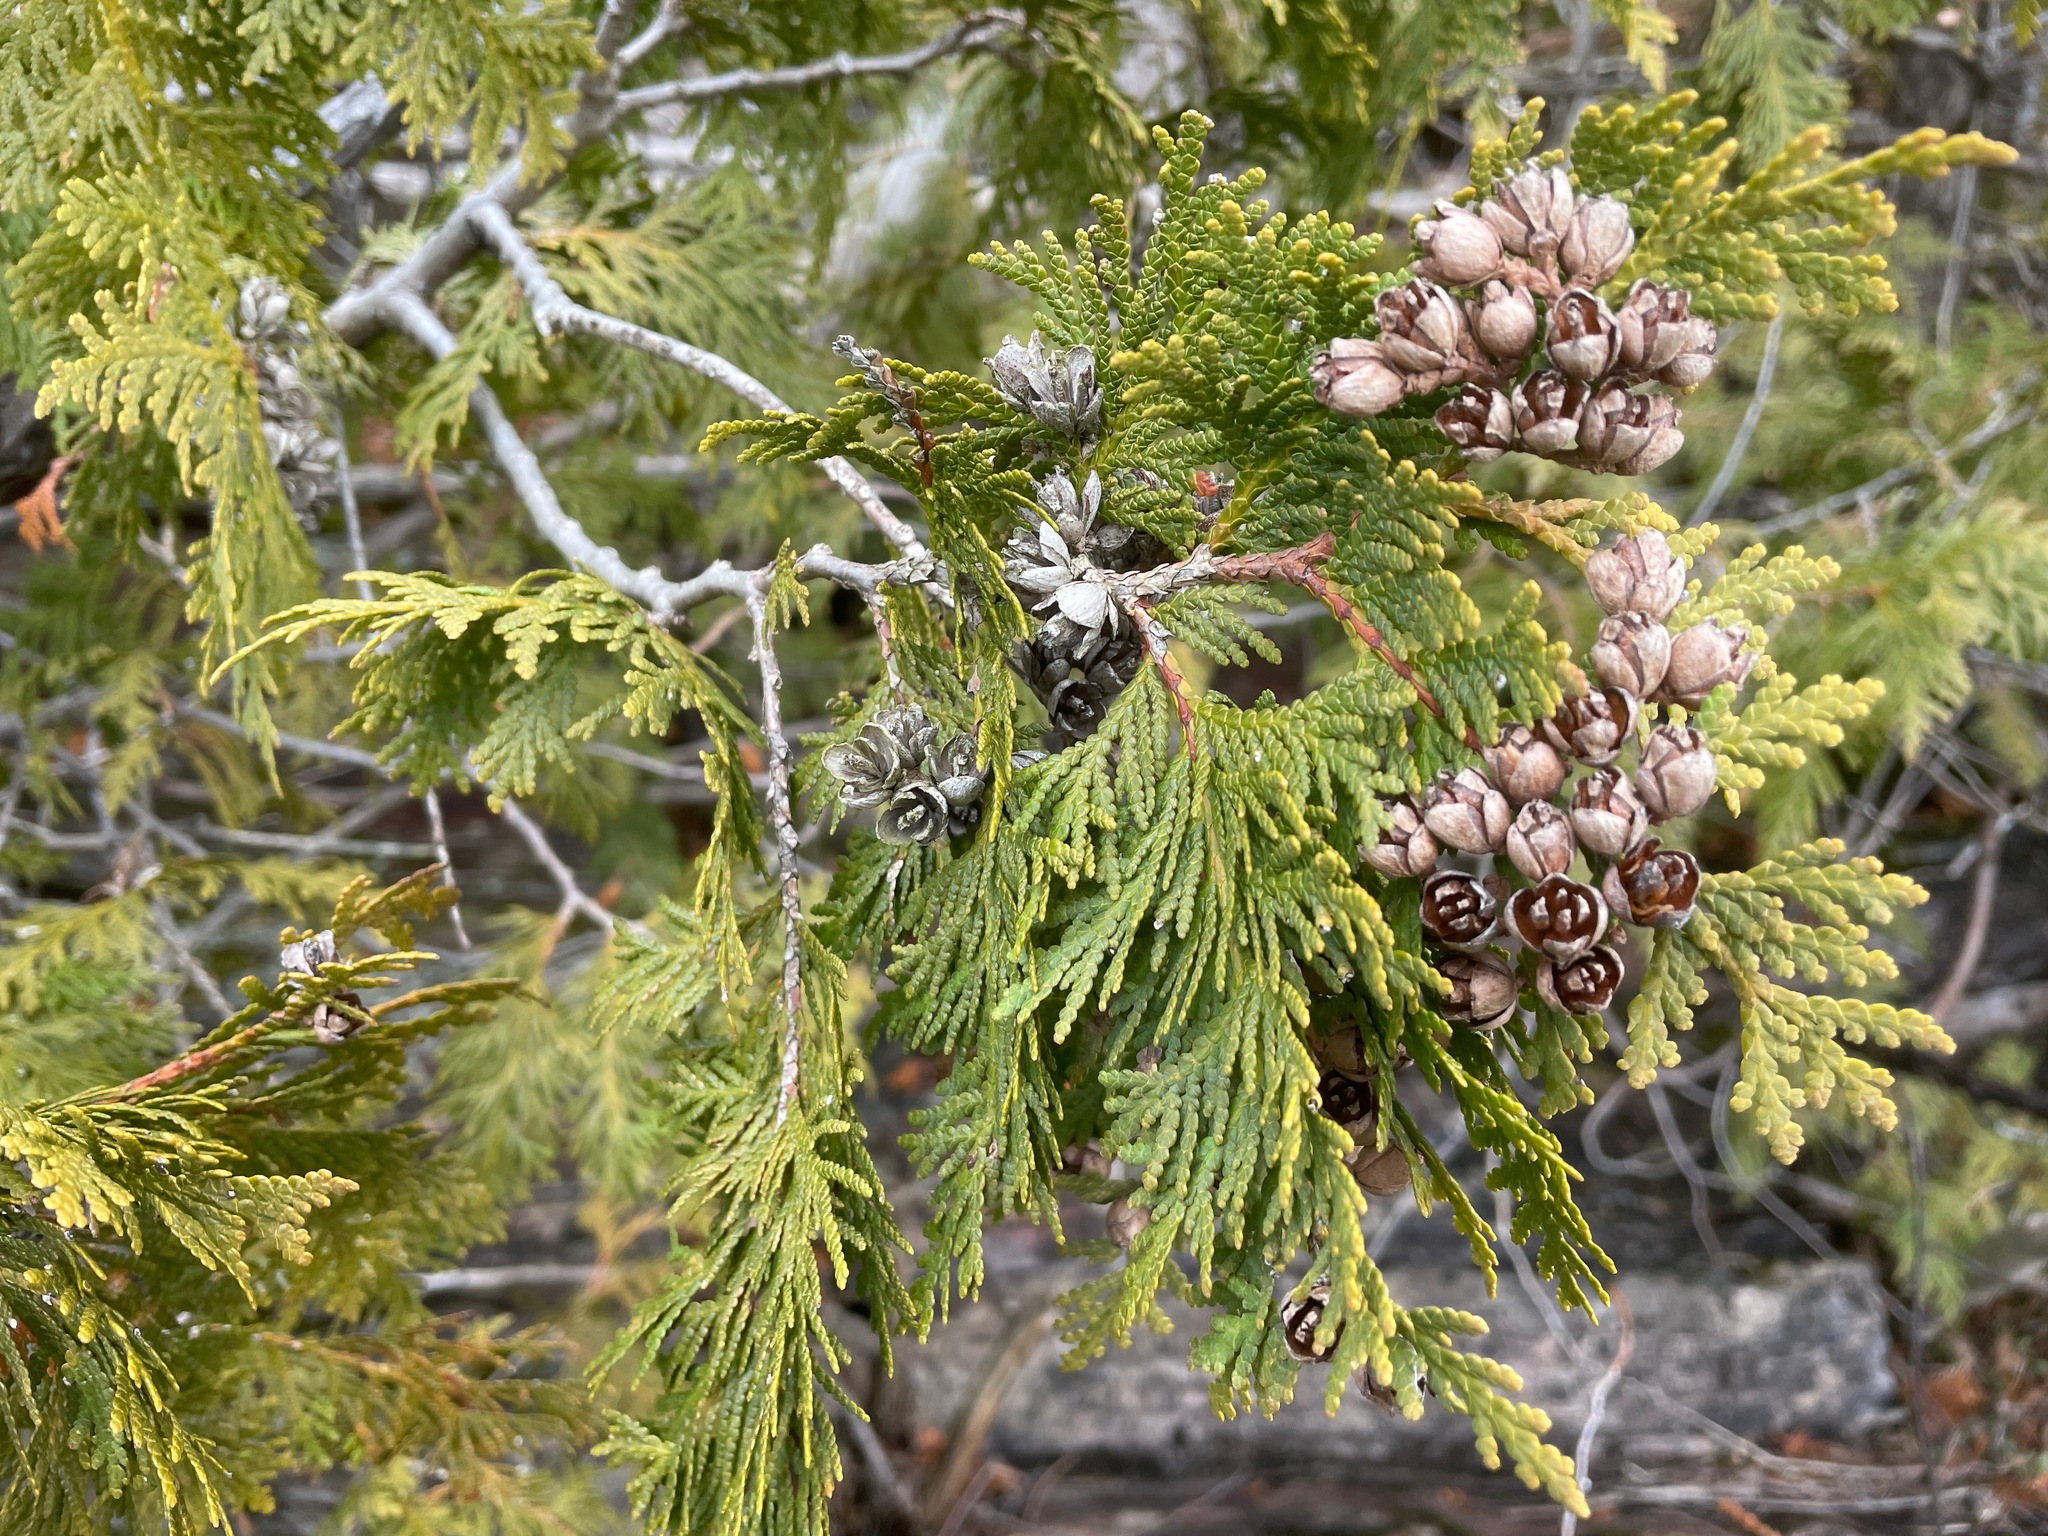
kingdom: Plantae
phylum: Tracheophyta
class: Pinopsida
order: Pinales
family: Cupressaceae
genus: Thuja
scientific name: Thuja occidentalis
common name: Northern white-cedar
